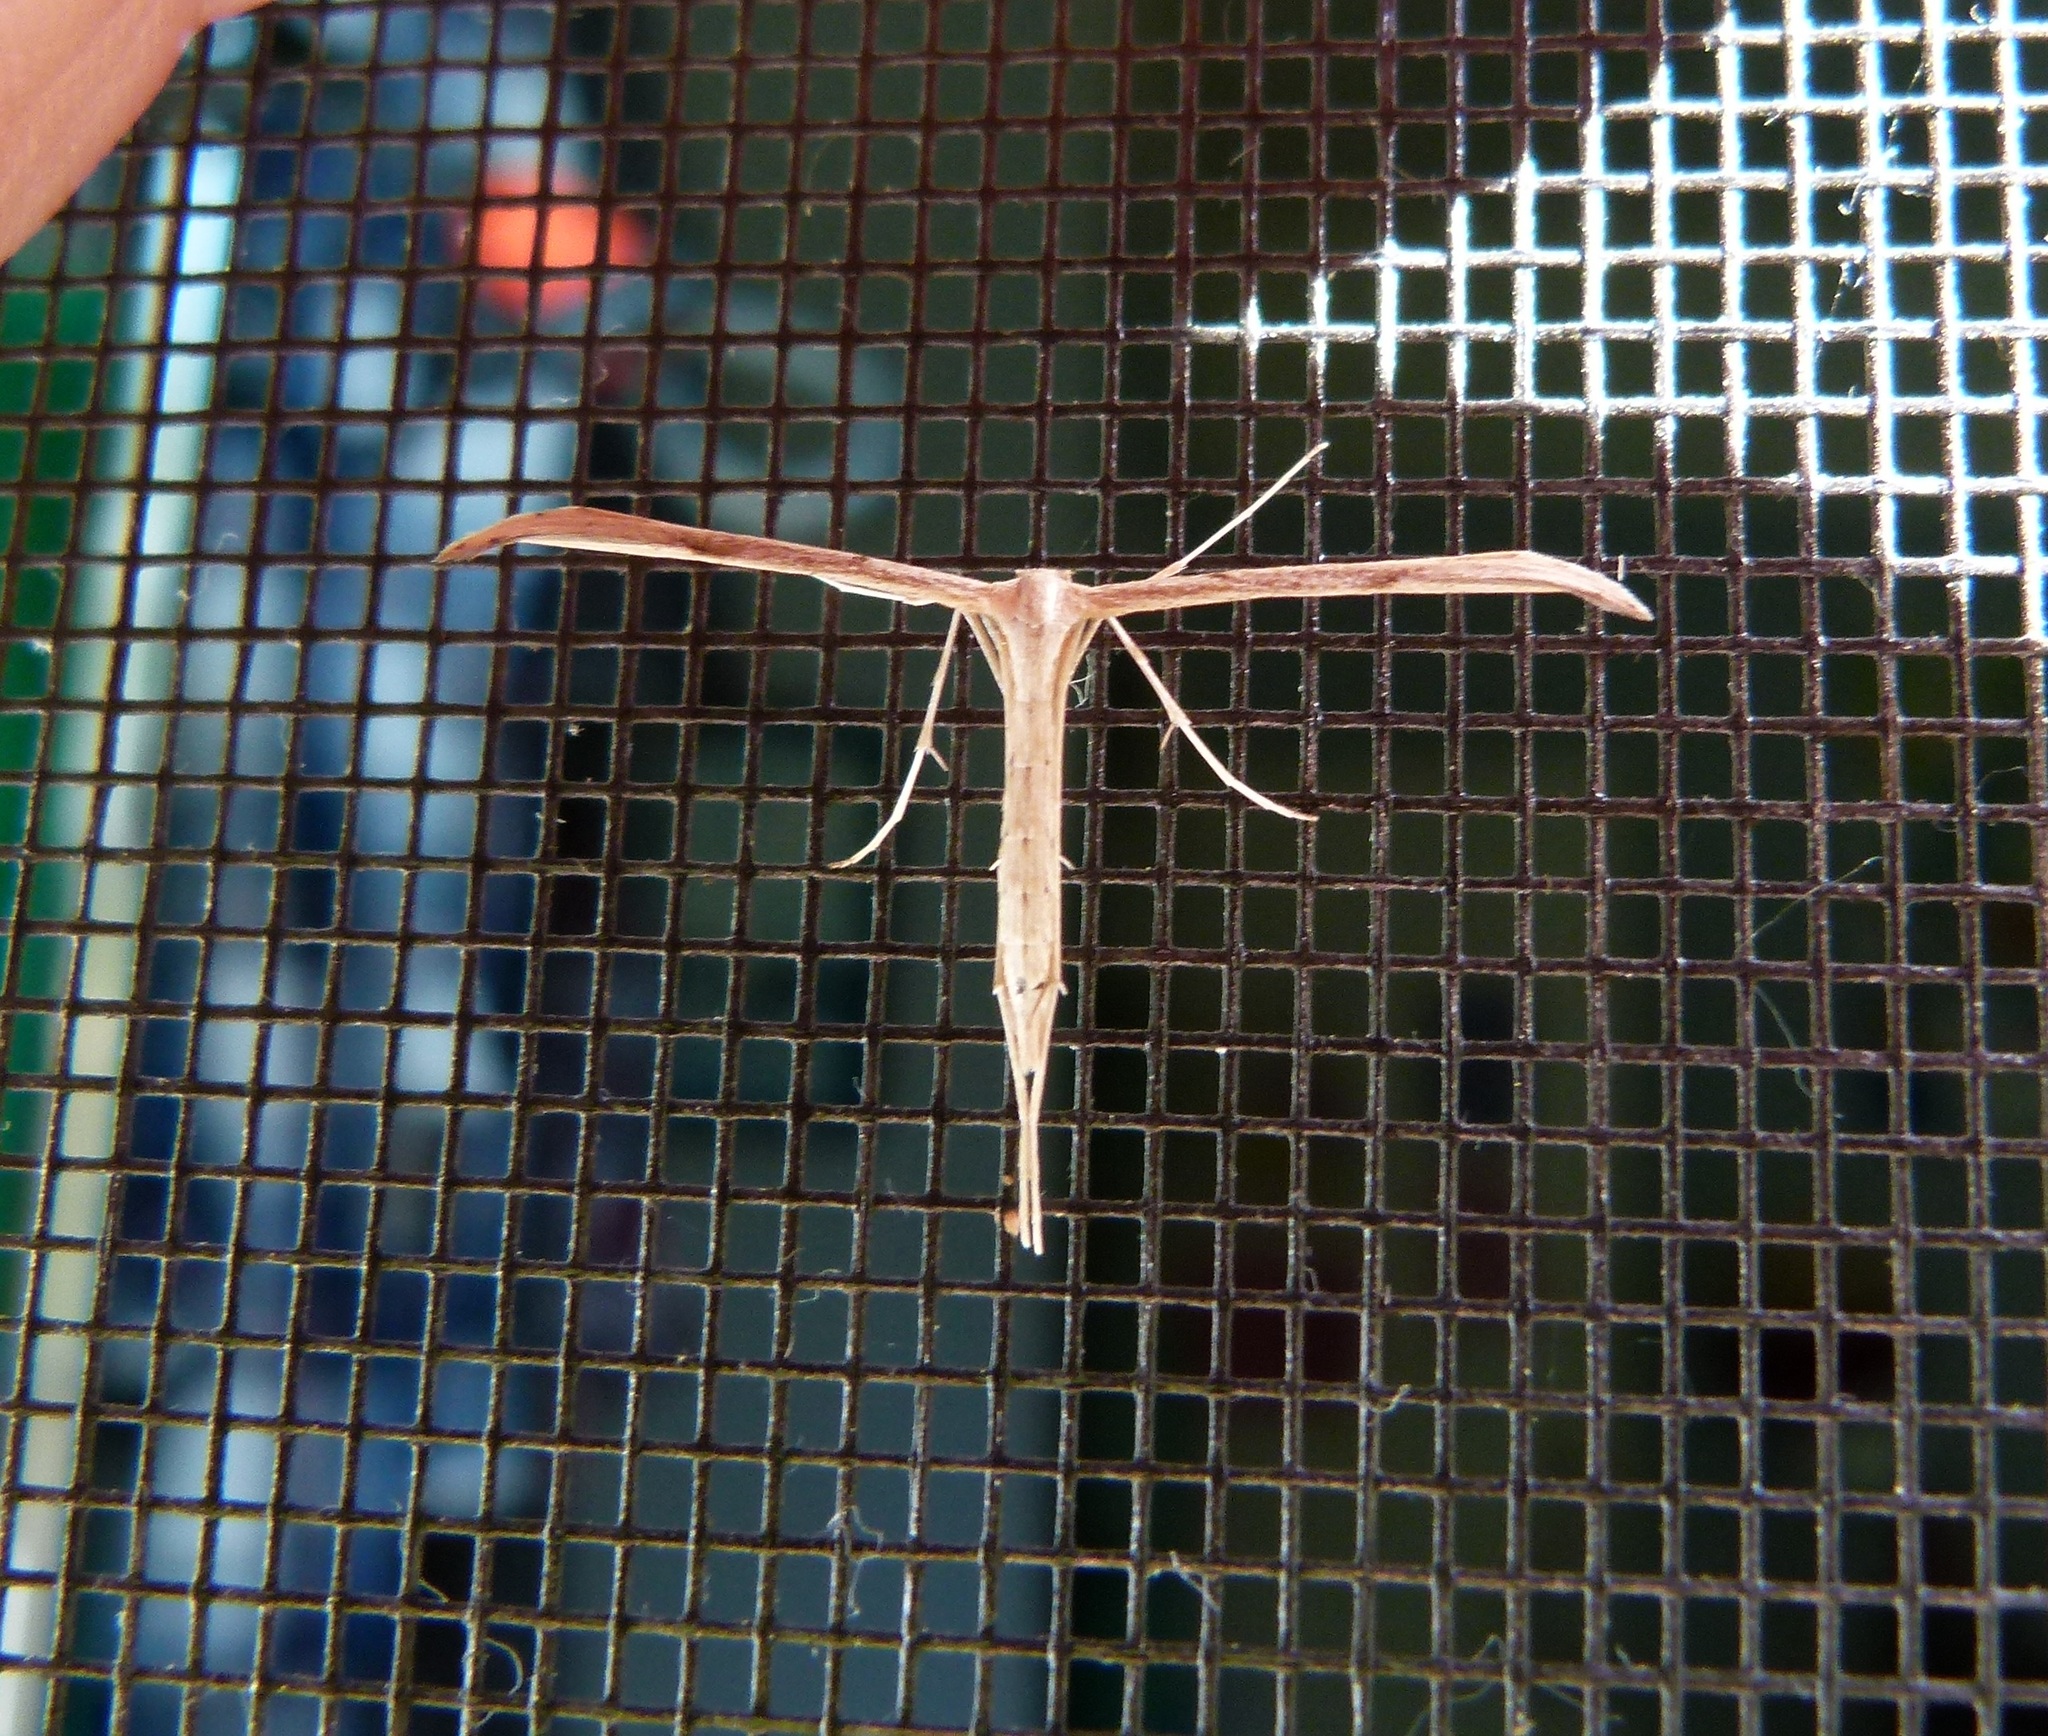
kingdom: Animalia
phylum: Arthropoda
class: Insecta
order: Lepidoptera
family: Pterophoridae
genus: Emmelina
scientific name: Emmelina monodactyla
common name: Common plume
